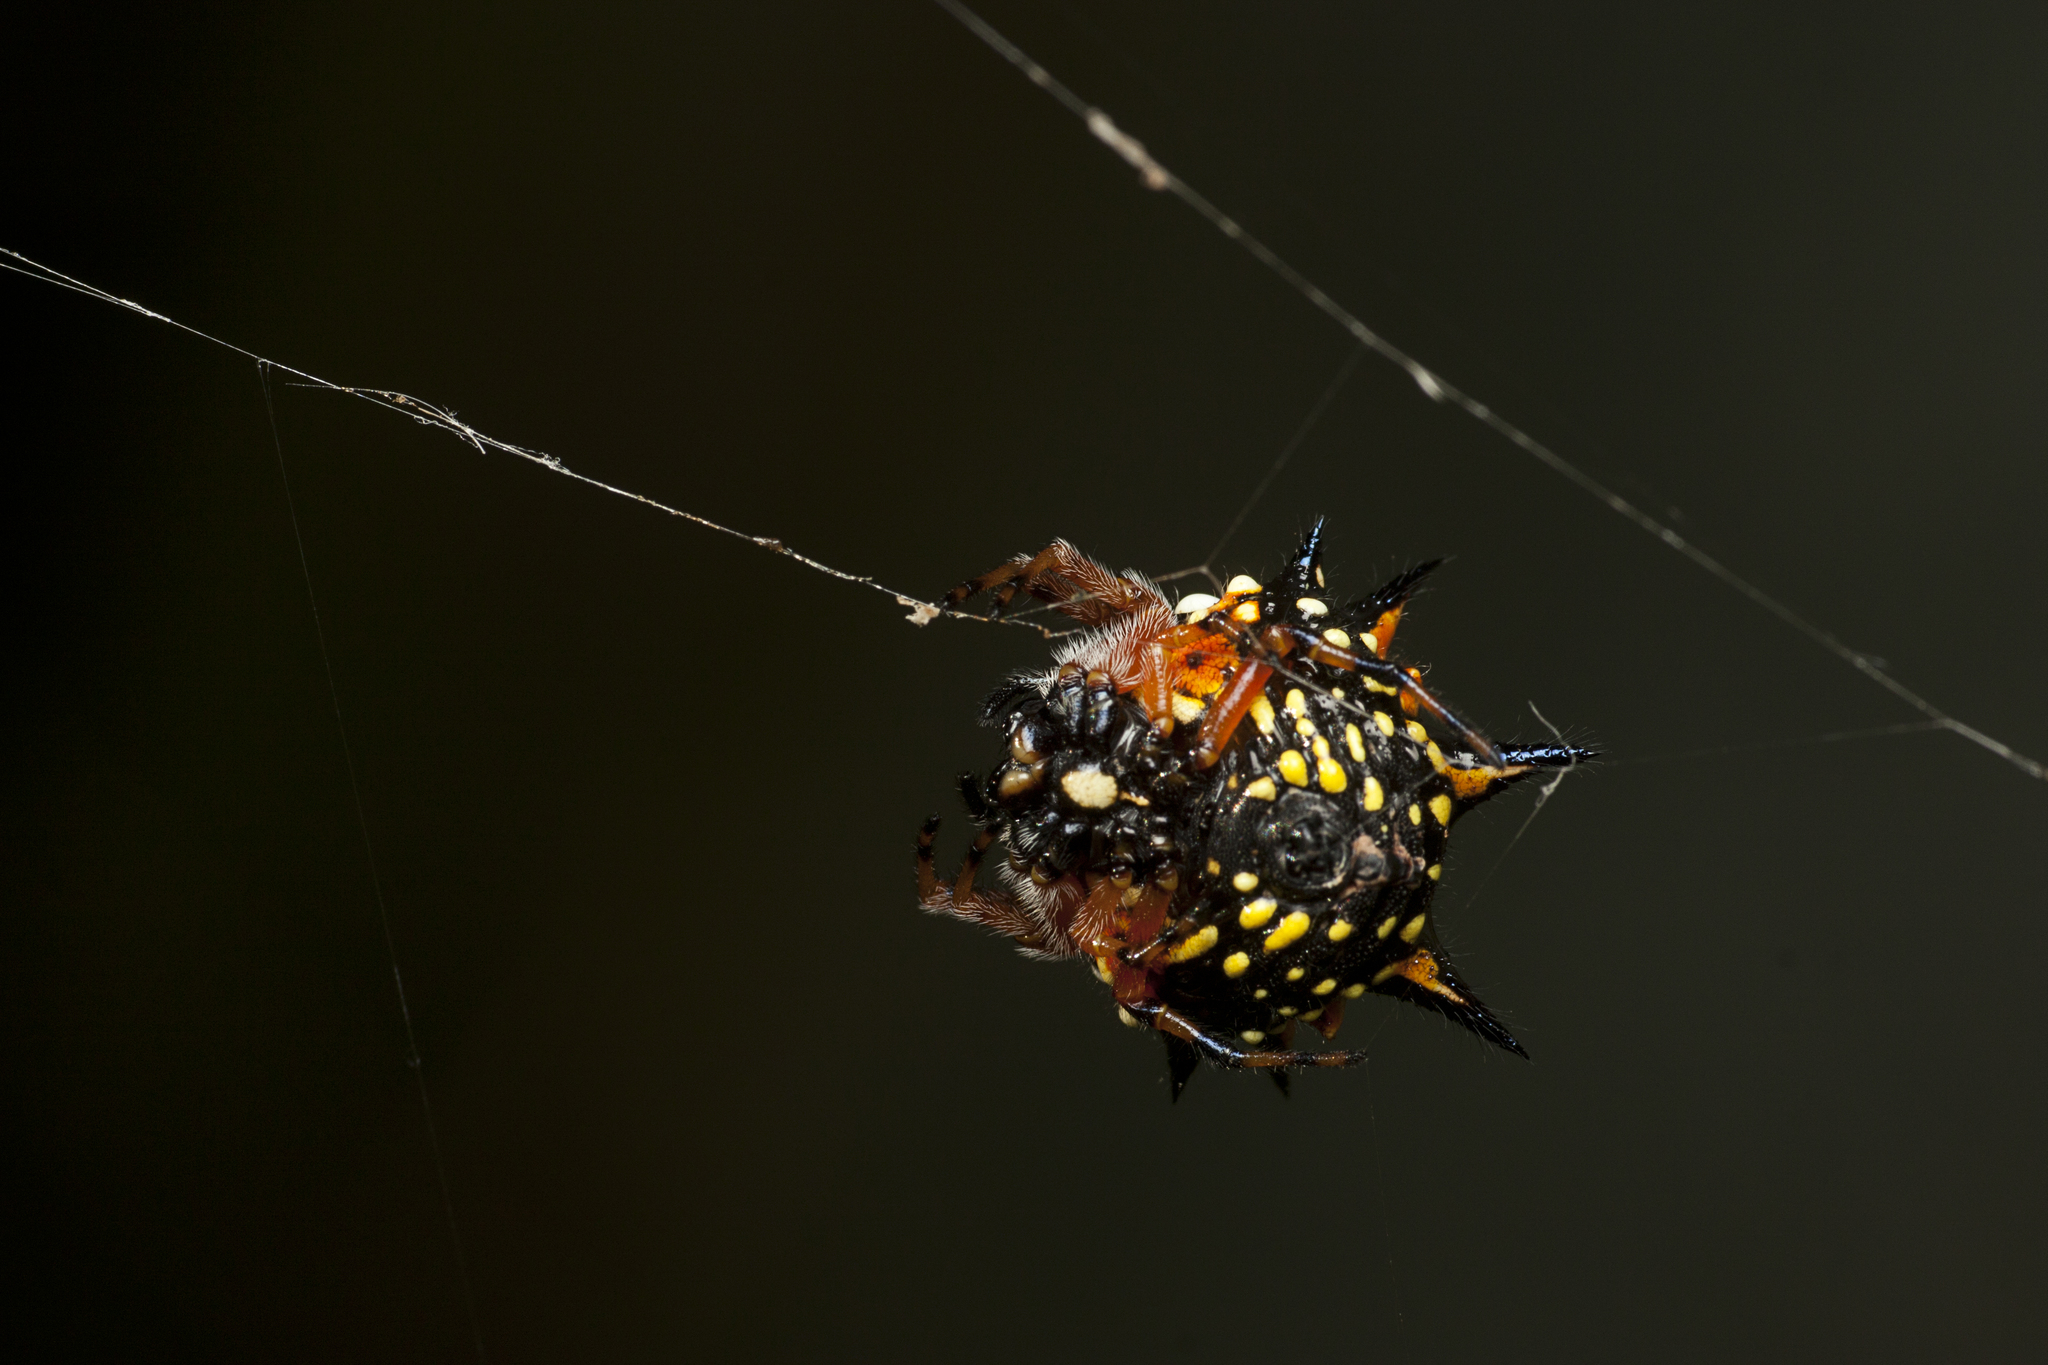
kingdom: Animalia
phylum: Arthropoda
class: Arachnida
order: Araneae
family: Araneidae
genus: Austracantha
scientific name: Austracantha minax
